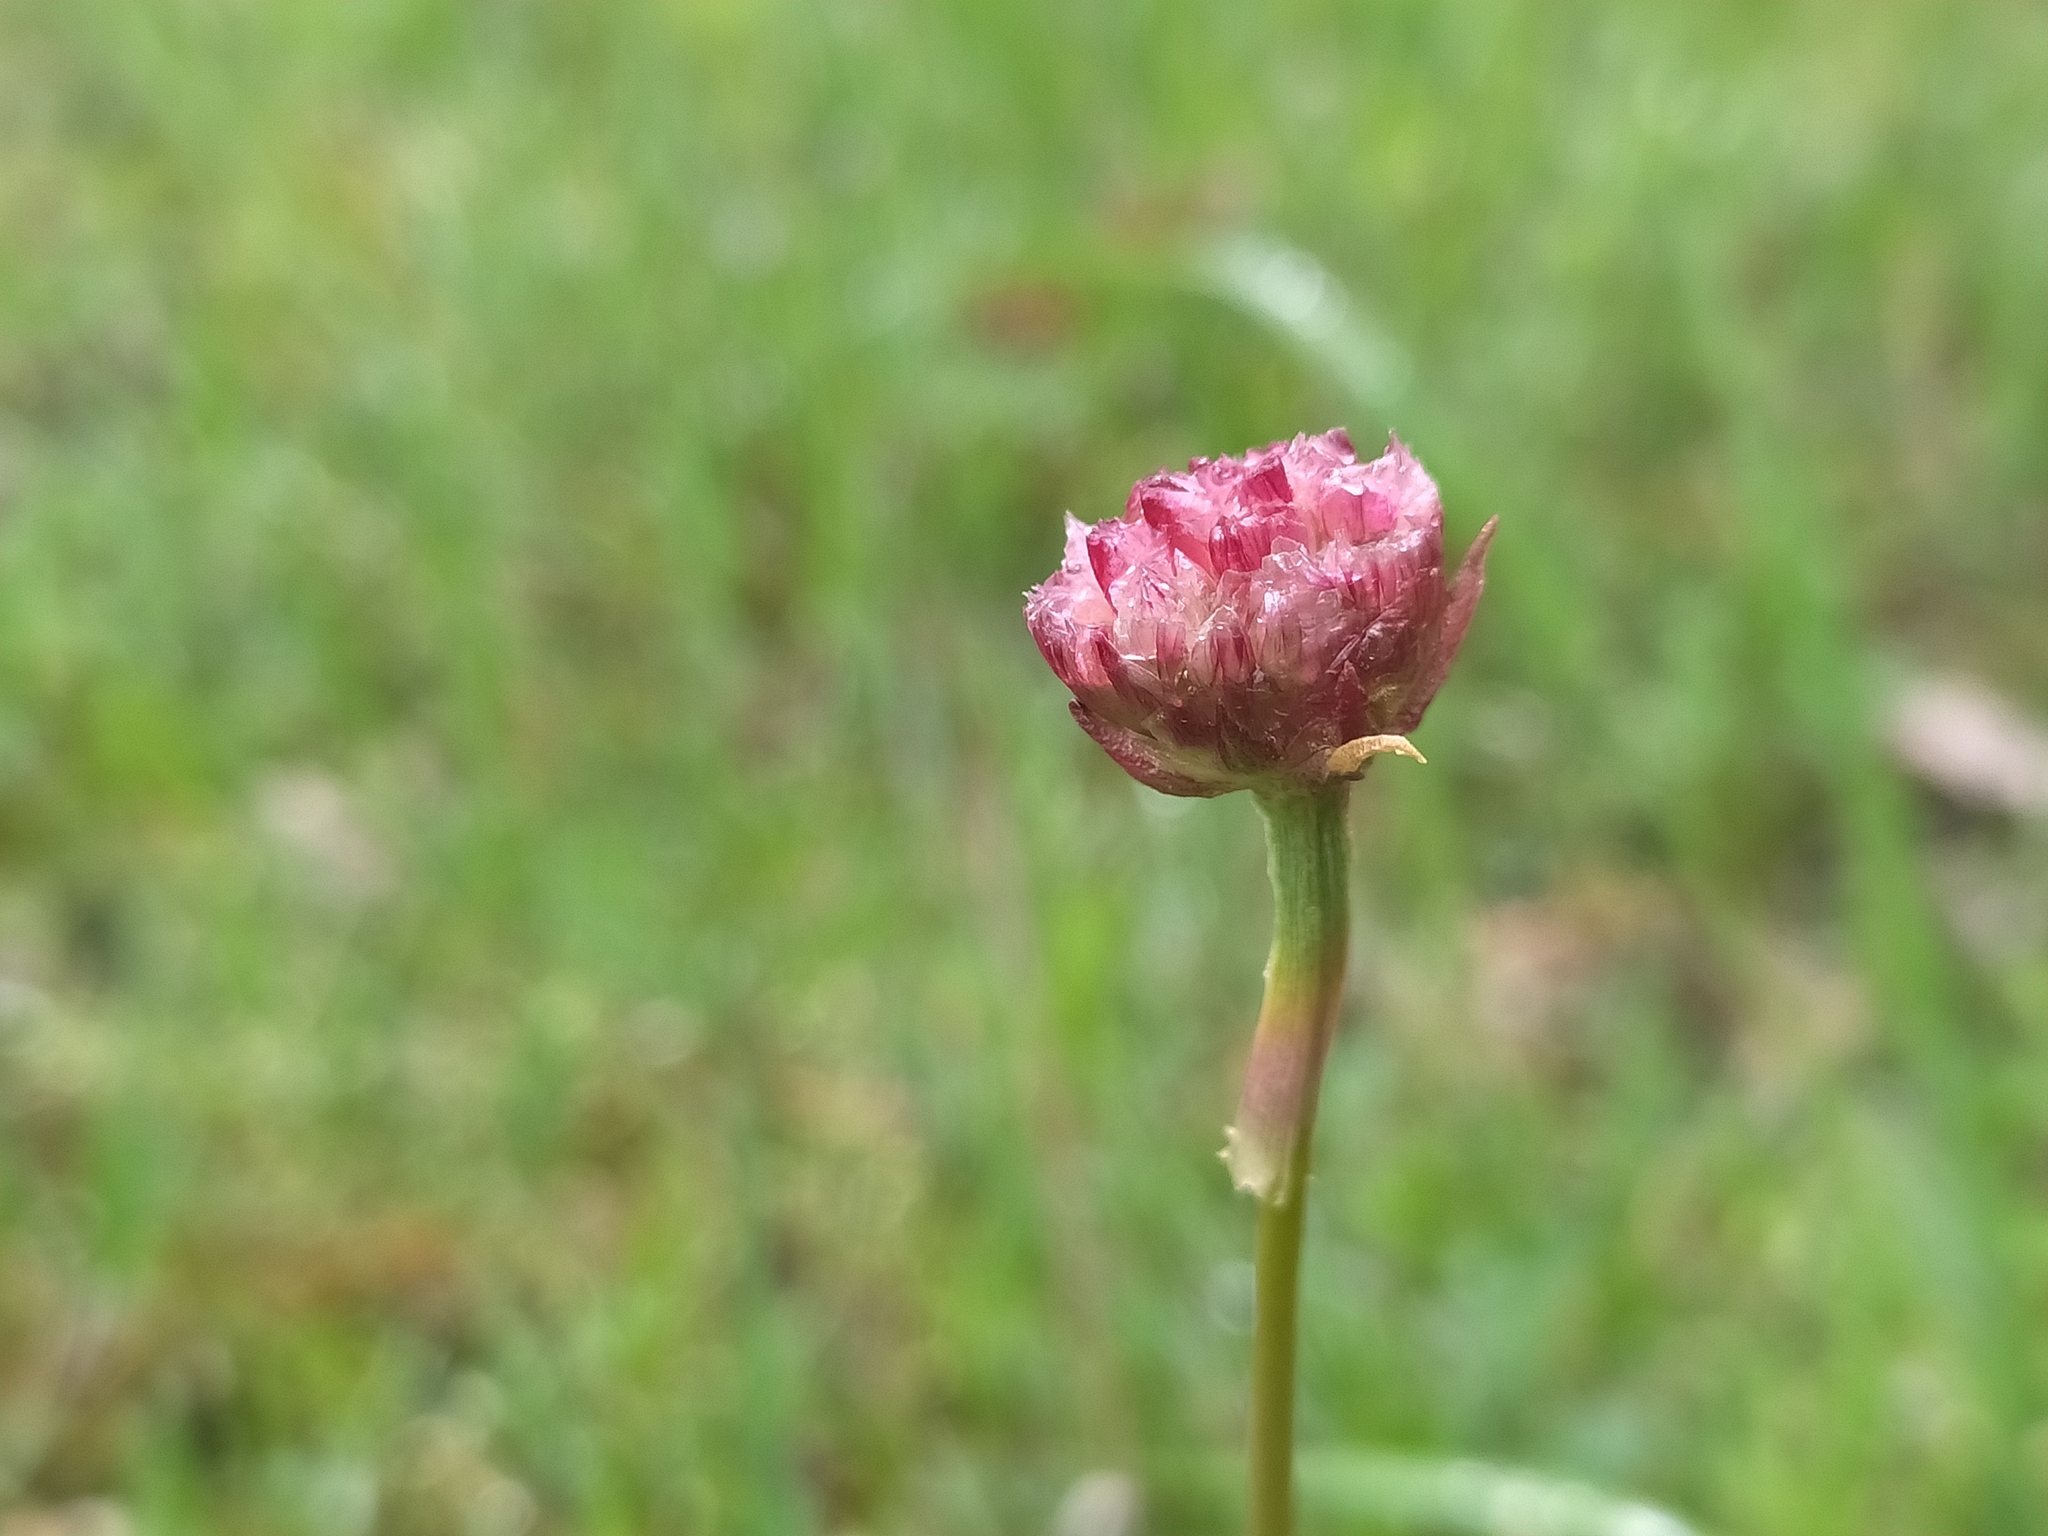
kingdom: Plantae
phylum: Tracheophyta
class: Magnoliopsida
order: Caryophyllales
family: Plumbaginaceae
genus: Armeria
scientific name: Armeria maritima
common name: Thrift
